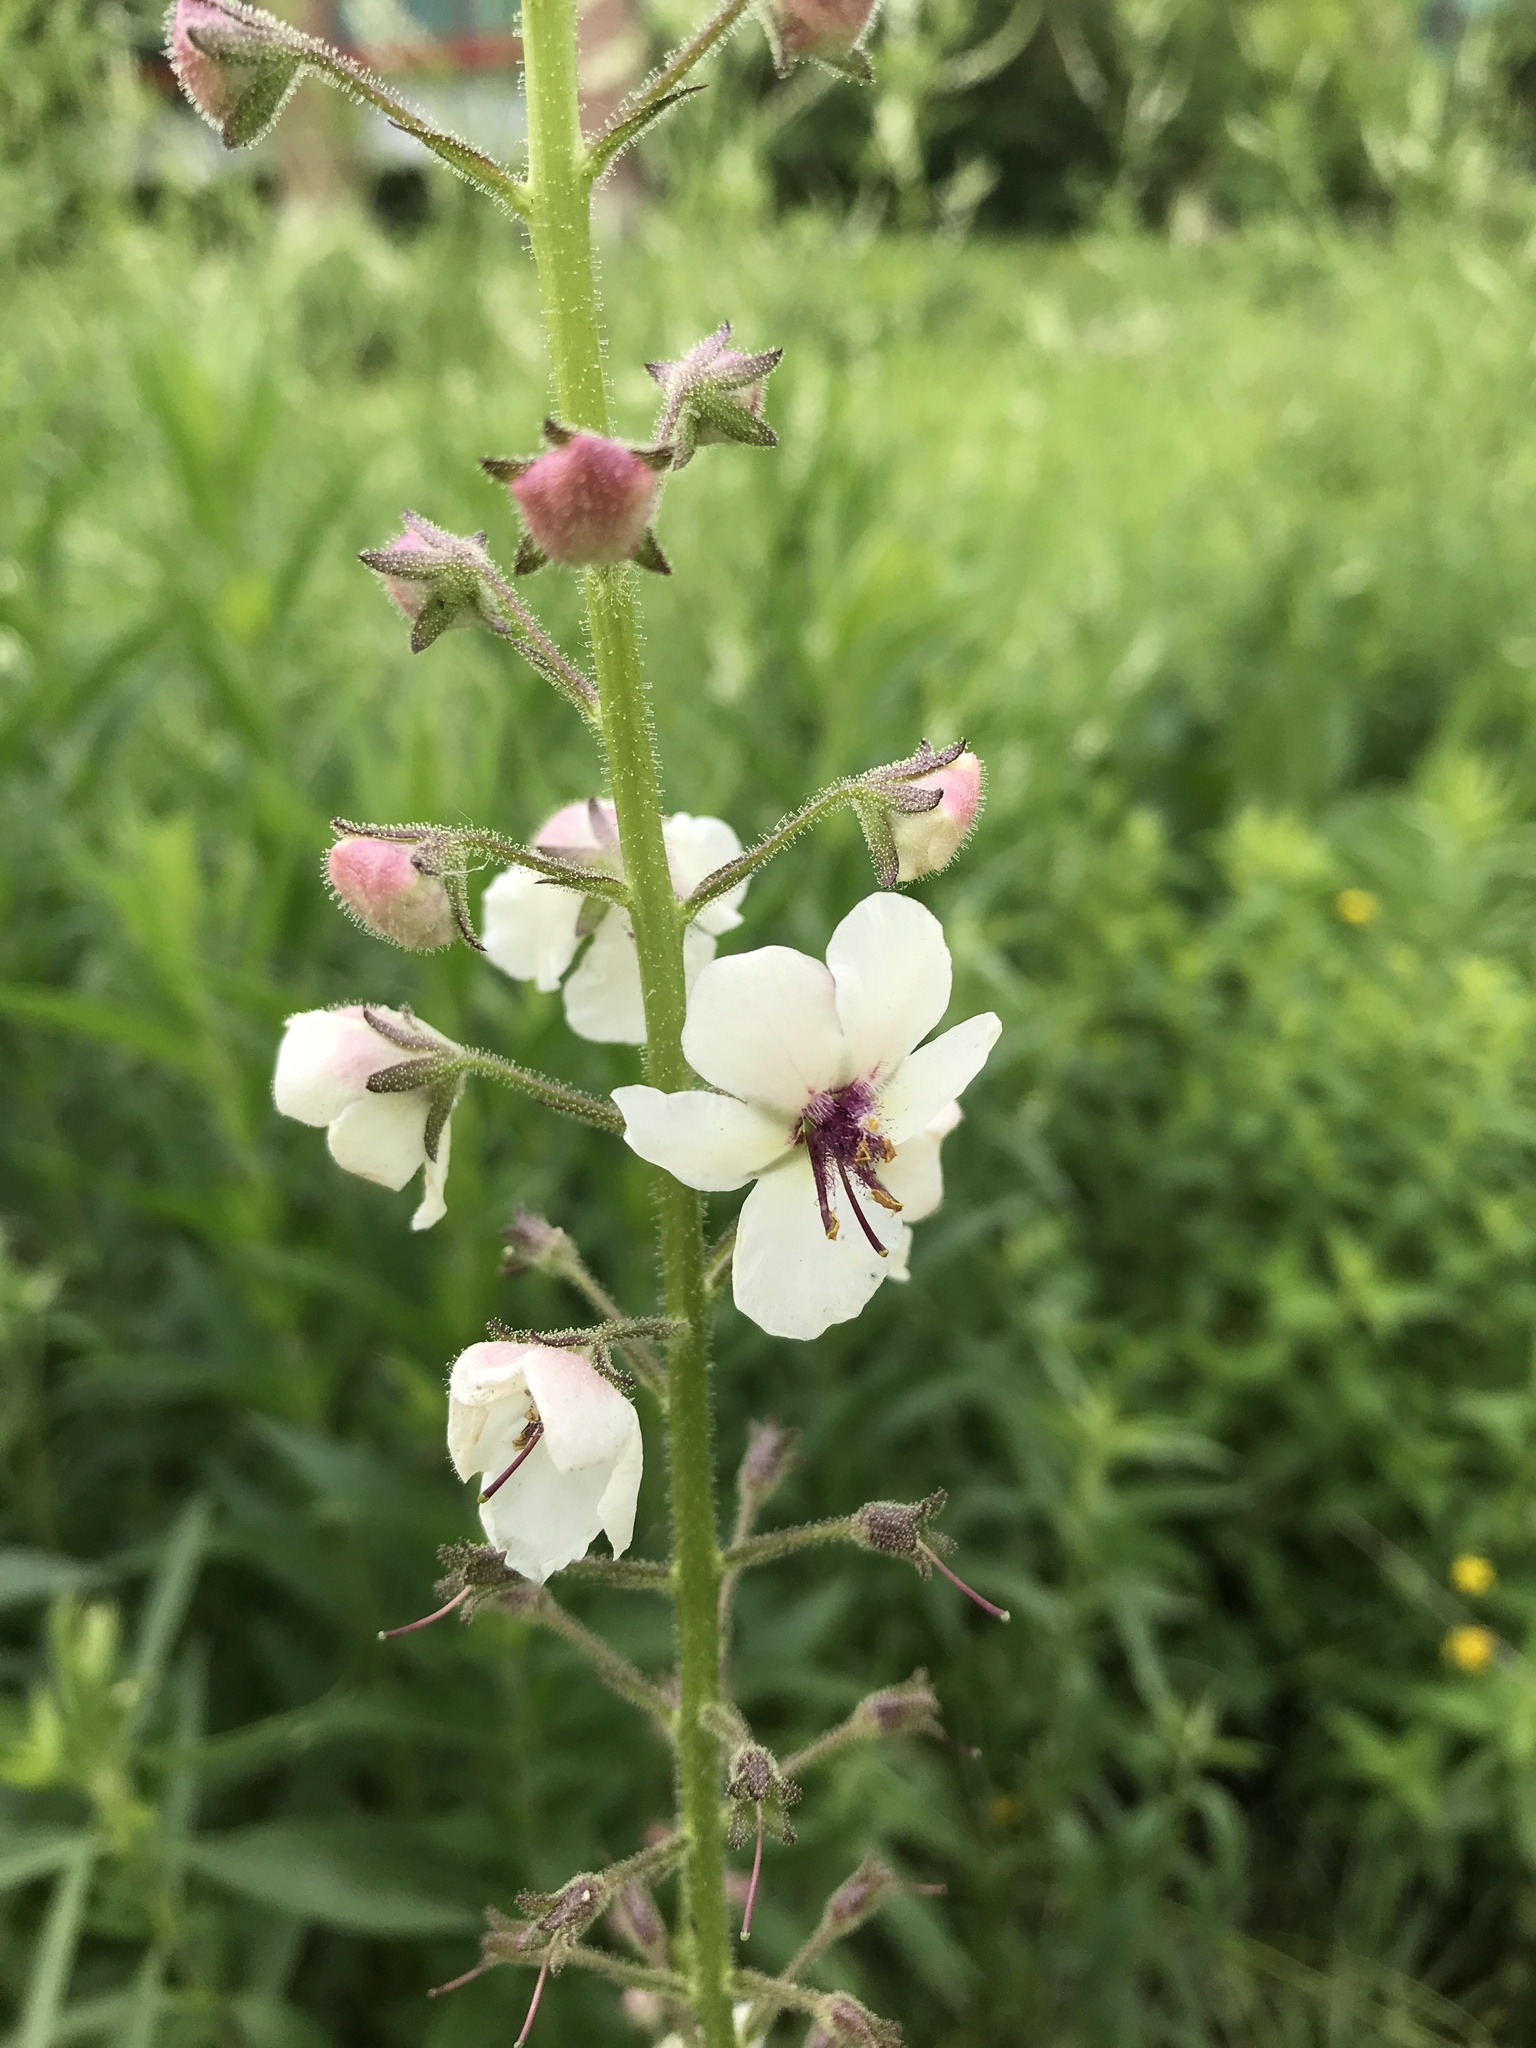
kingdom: Plantae
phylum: Tracheophyta
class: Magnoliopsida
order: Lamiales
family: Scrophulariaceae
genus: Verbascum
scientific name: Verbascum blattaria
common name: Moth mullein
